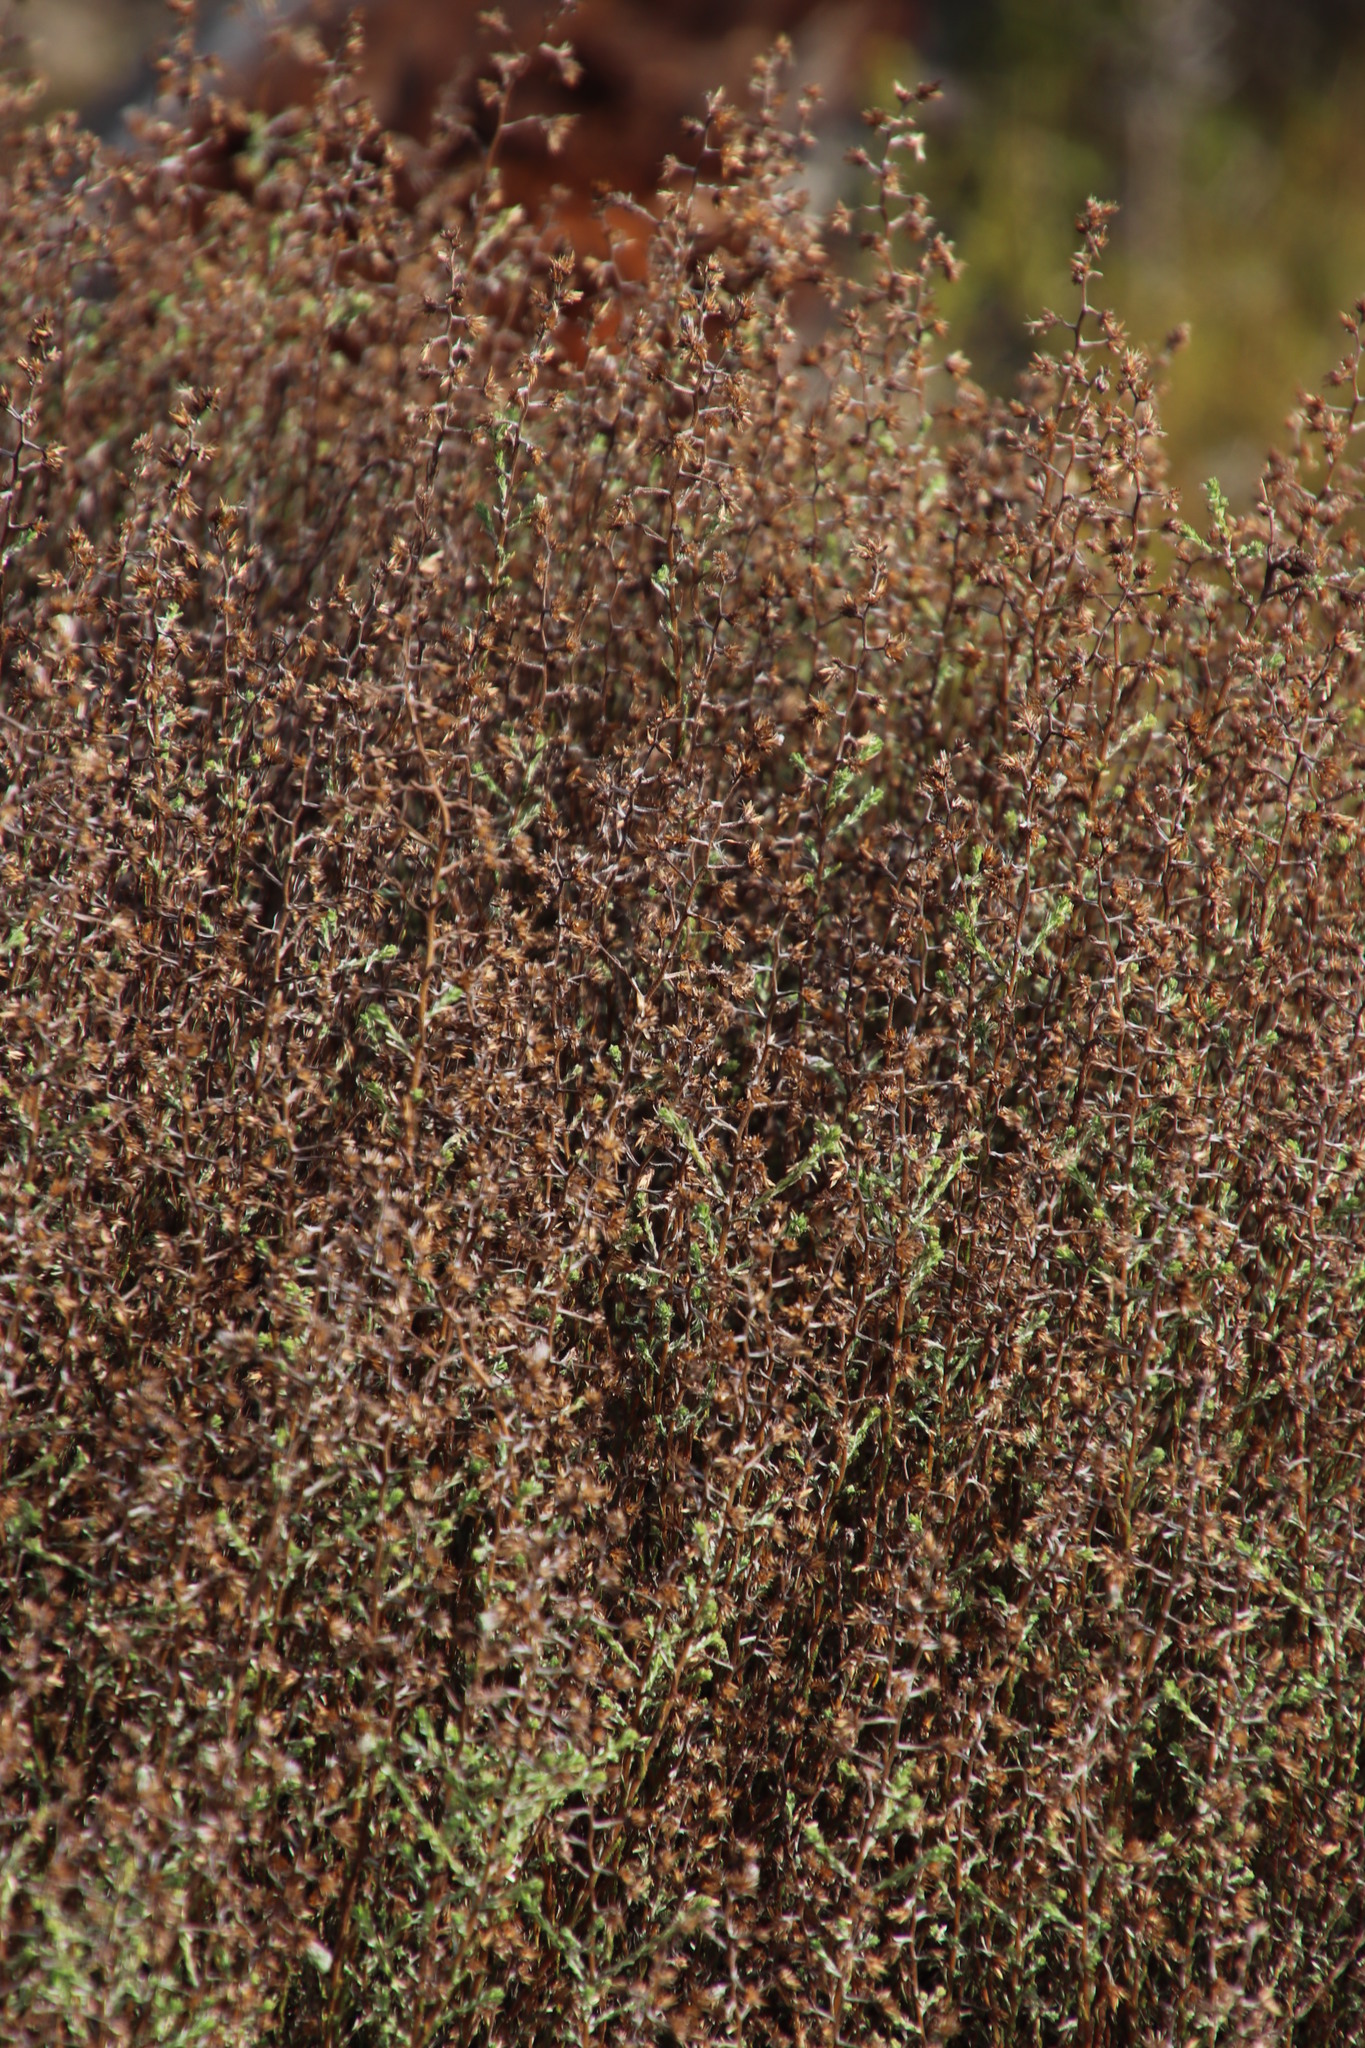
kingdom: Plantae
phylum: Tracheophyta
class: Magnoliopsida
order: Asterales
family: Asteraceae
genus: Myrovernix
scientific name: Myrovernix scaber
